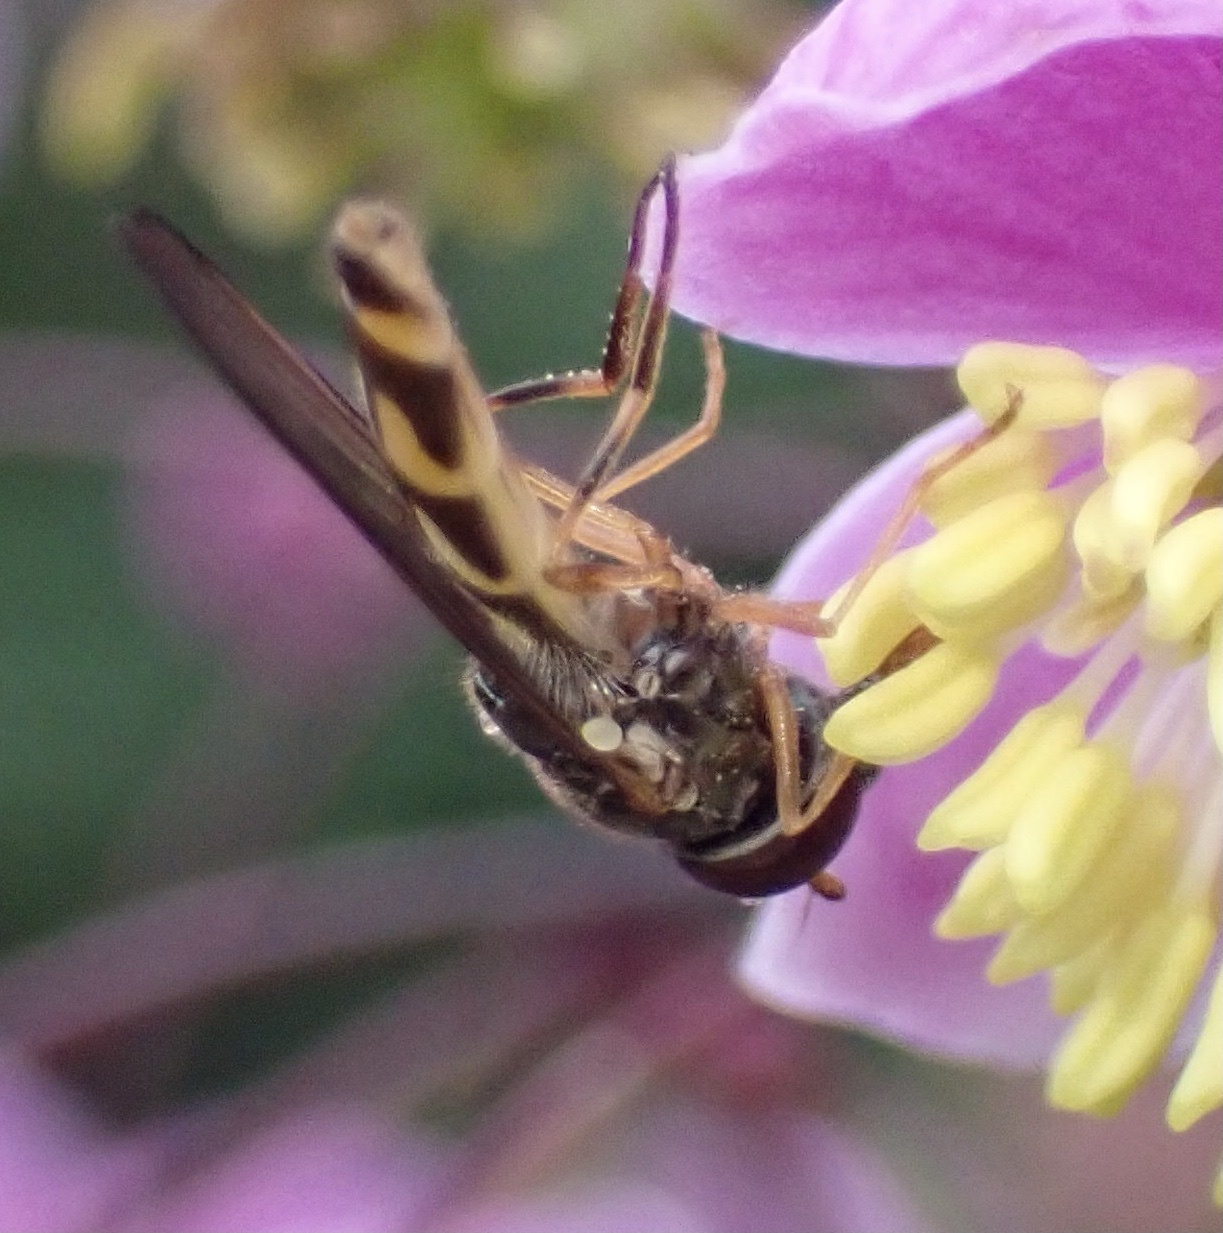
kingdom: Animalia
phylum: Arthropoda
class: Insecta
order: Diptera
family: Syrphidae
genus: Melanostoma
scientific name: Melanostoma mellina
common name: Hover fly
